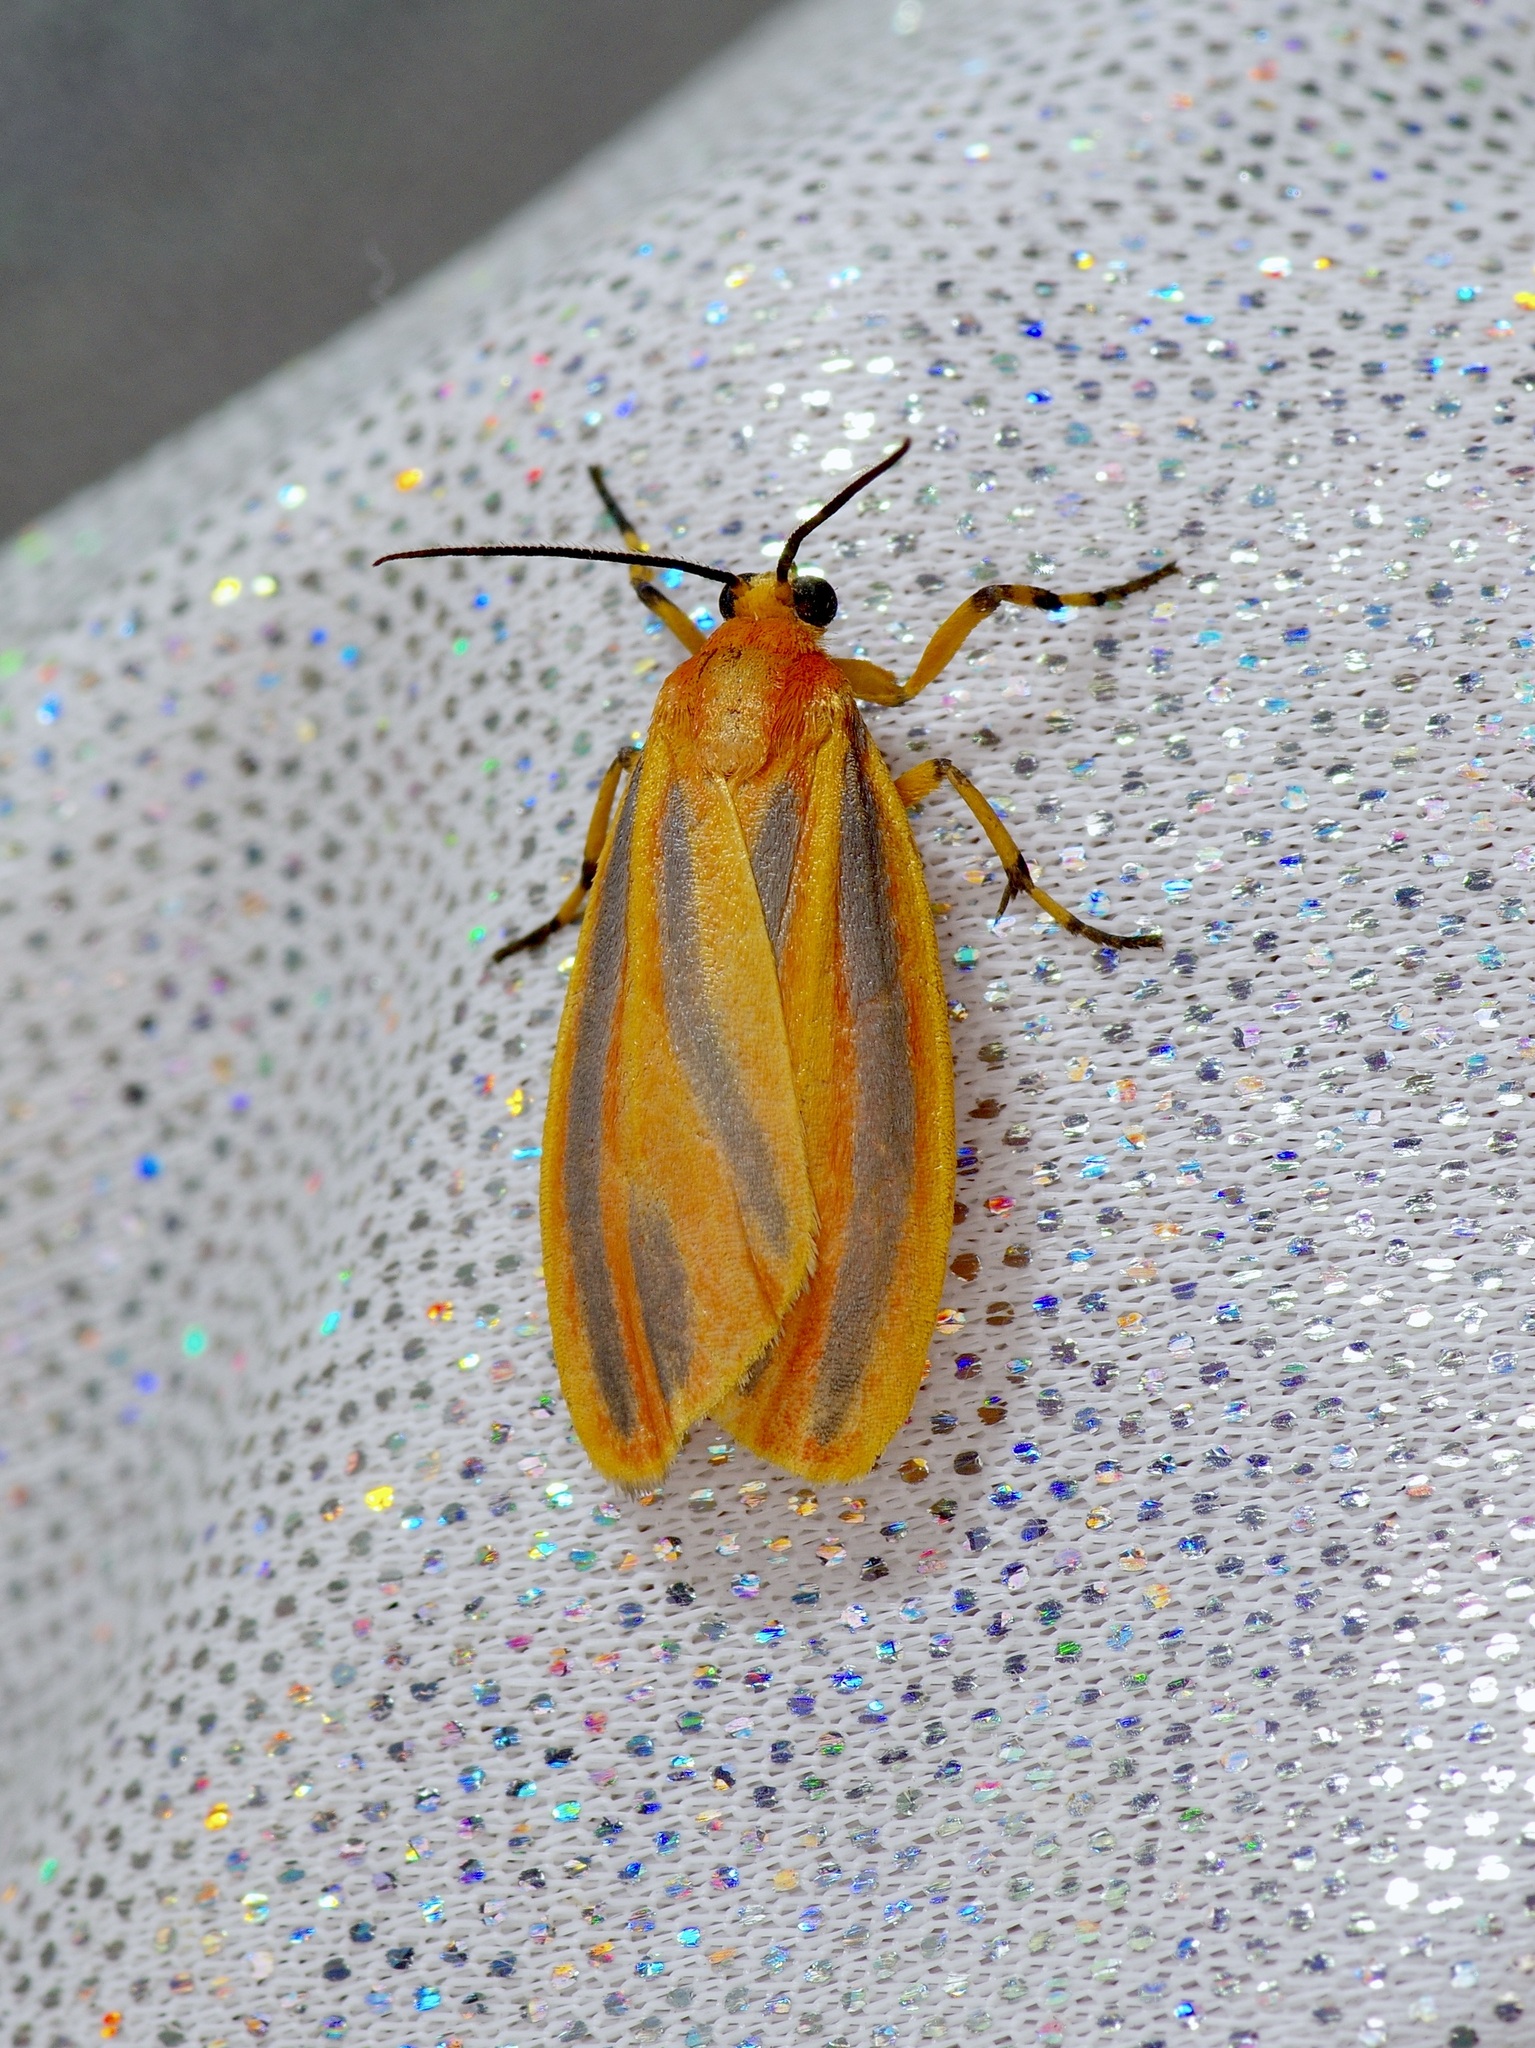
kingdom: Animalia
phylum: Arthropoda
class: Insecta
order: Lepidoptera
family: Erebidae
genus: Hypoprepia
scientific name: Hypoprepia fucosa
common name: Painted lichen moth
